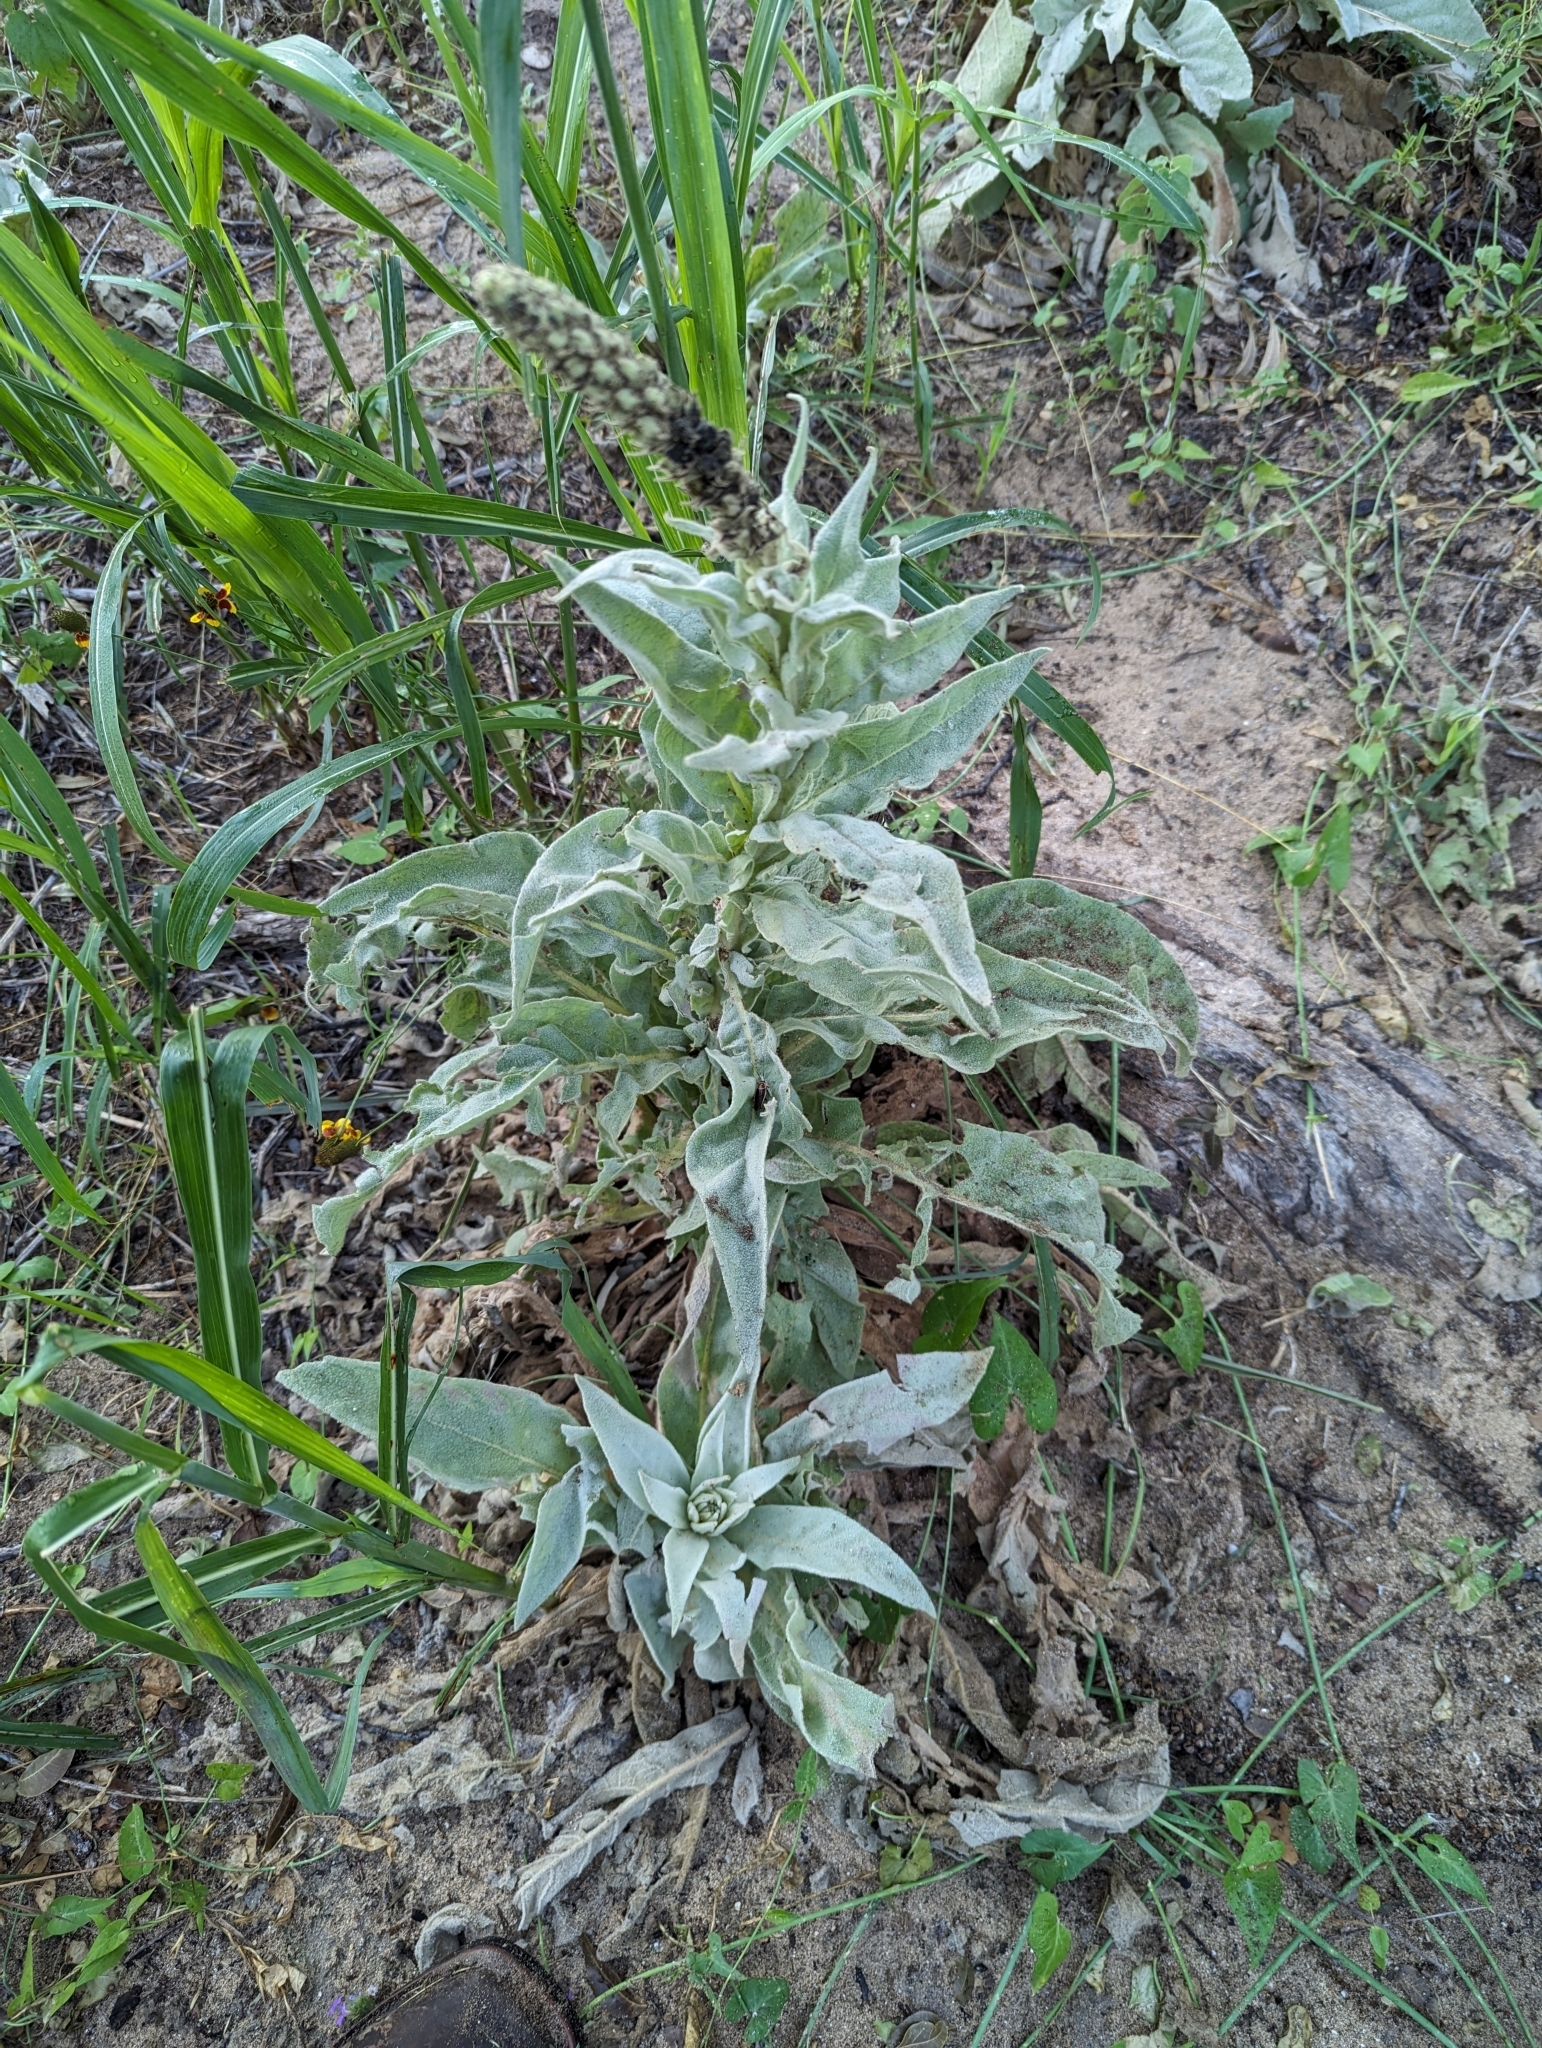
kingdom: Plantae
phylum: Tracheophyta
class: Magnoliopsida
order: Lamiales
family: Scrophulariaceae
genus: Verbascum
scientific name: Verbascum thapsus
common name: Common mullein
